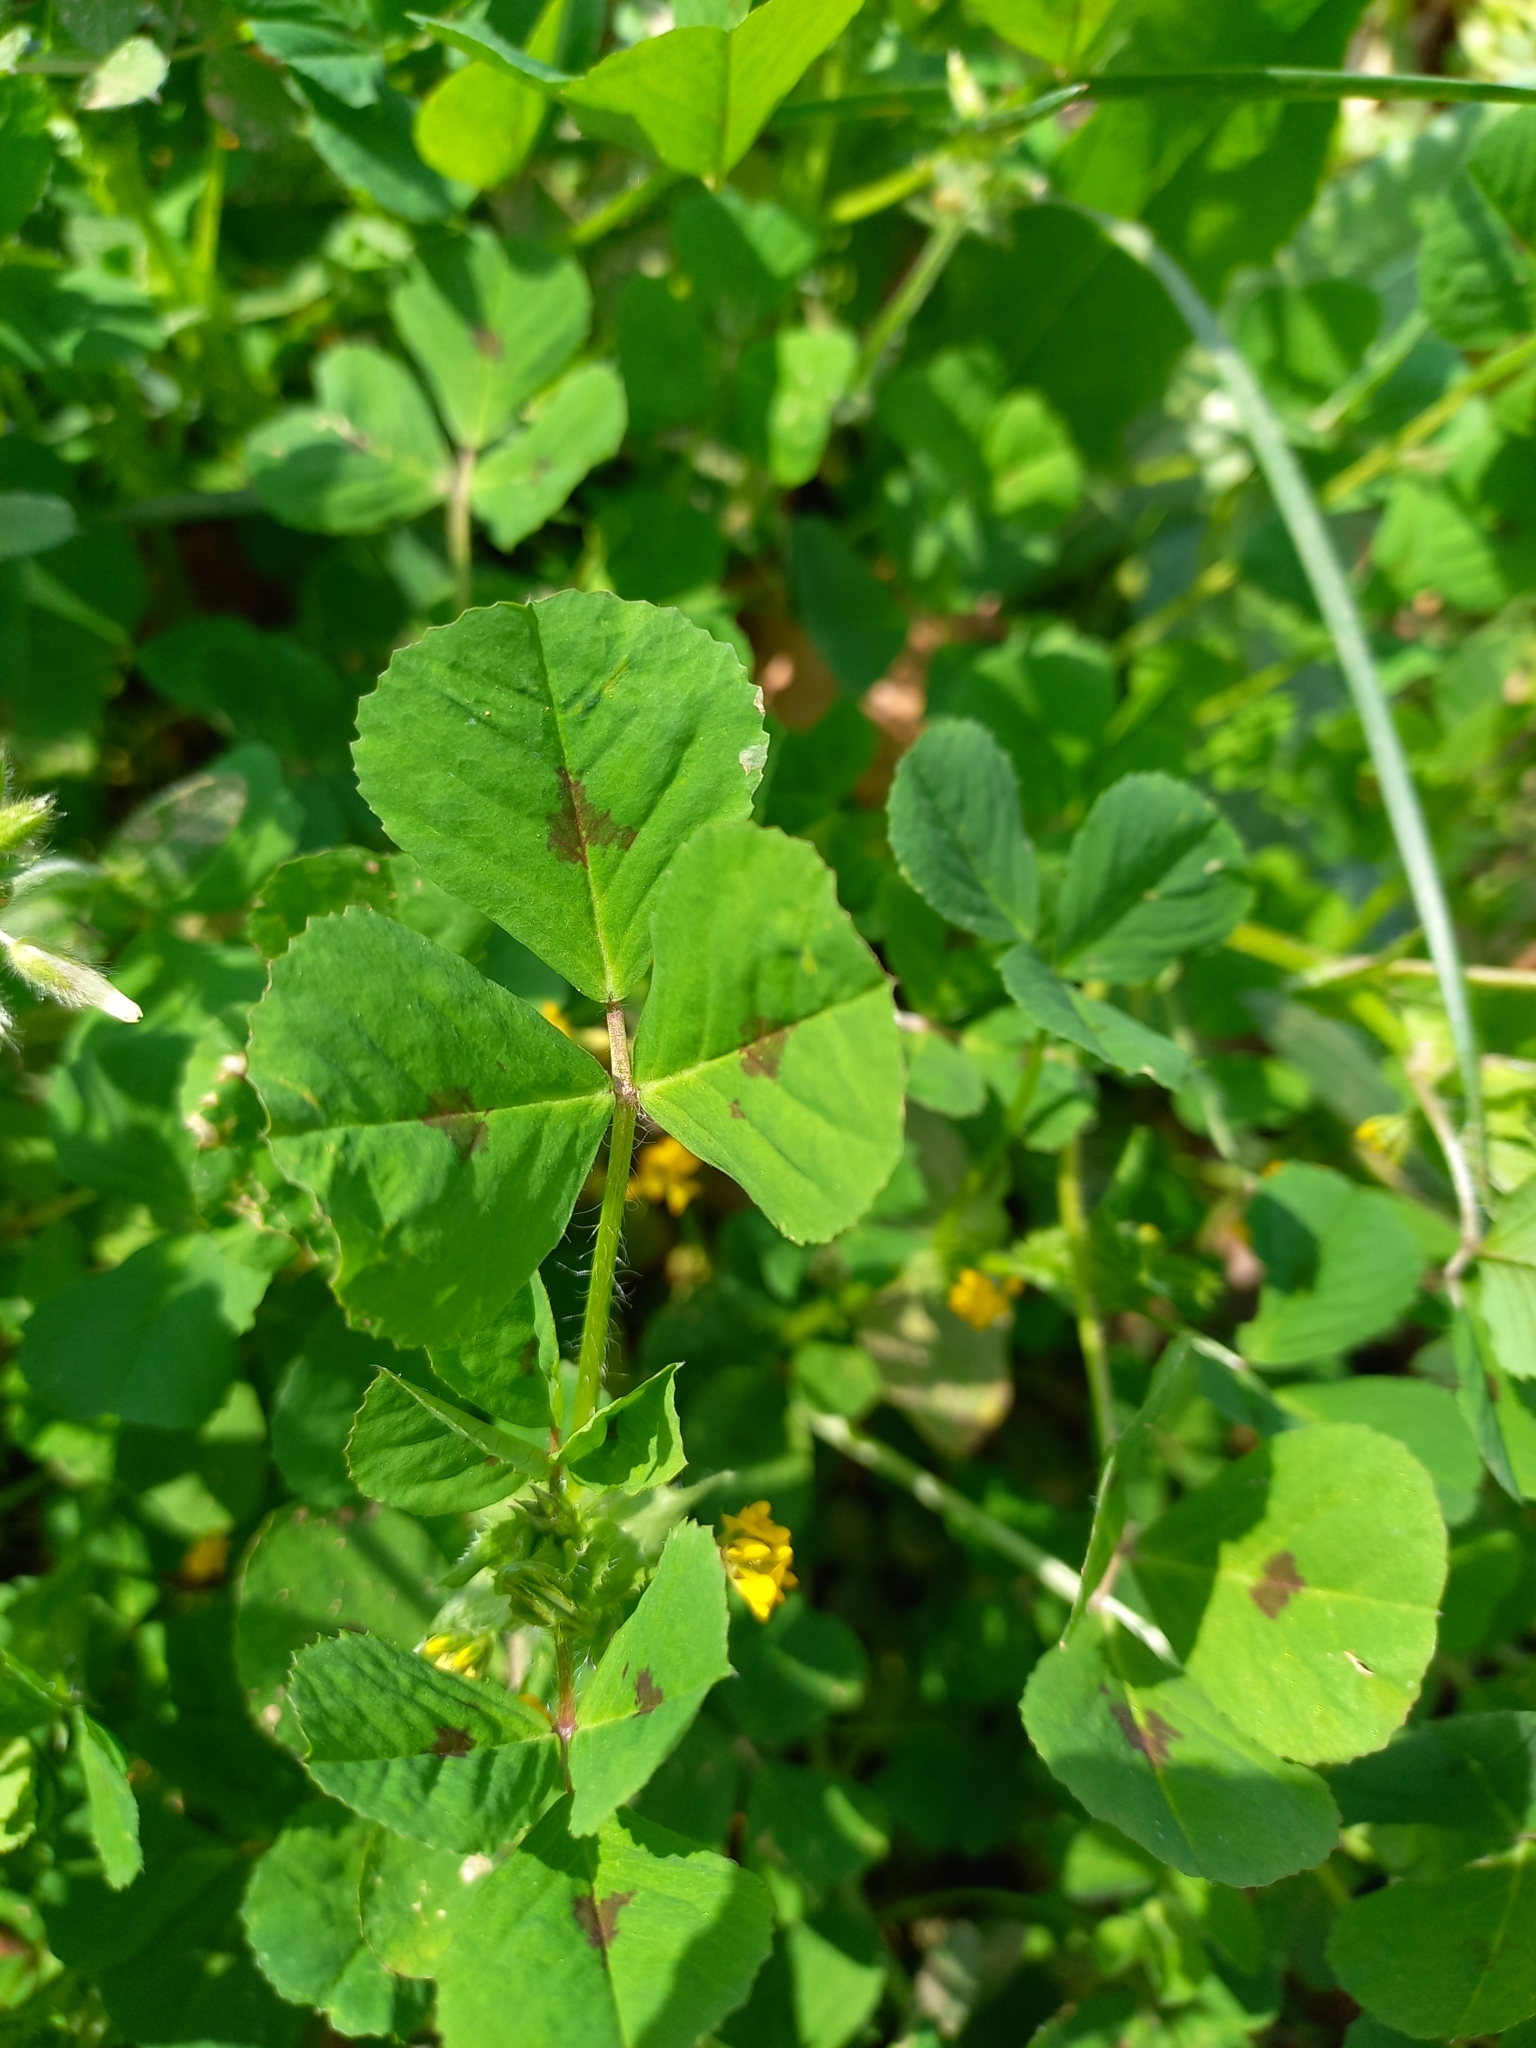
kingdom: Plantae
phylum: Tracheophyta
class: Magnoliopsida
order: Fabales
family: Fabaceae
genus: Medicago
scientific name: Medicago arabica
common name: Spotted medick
